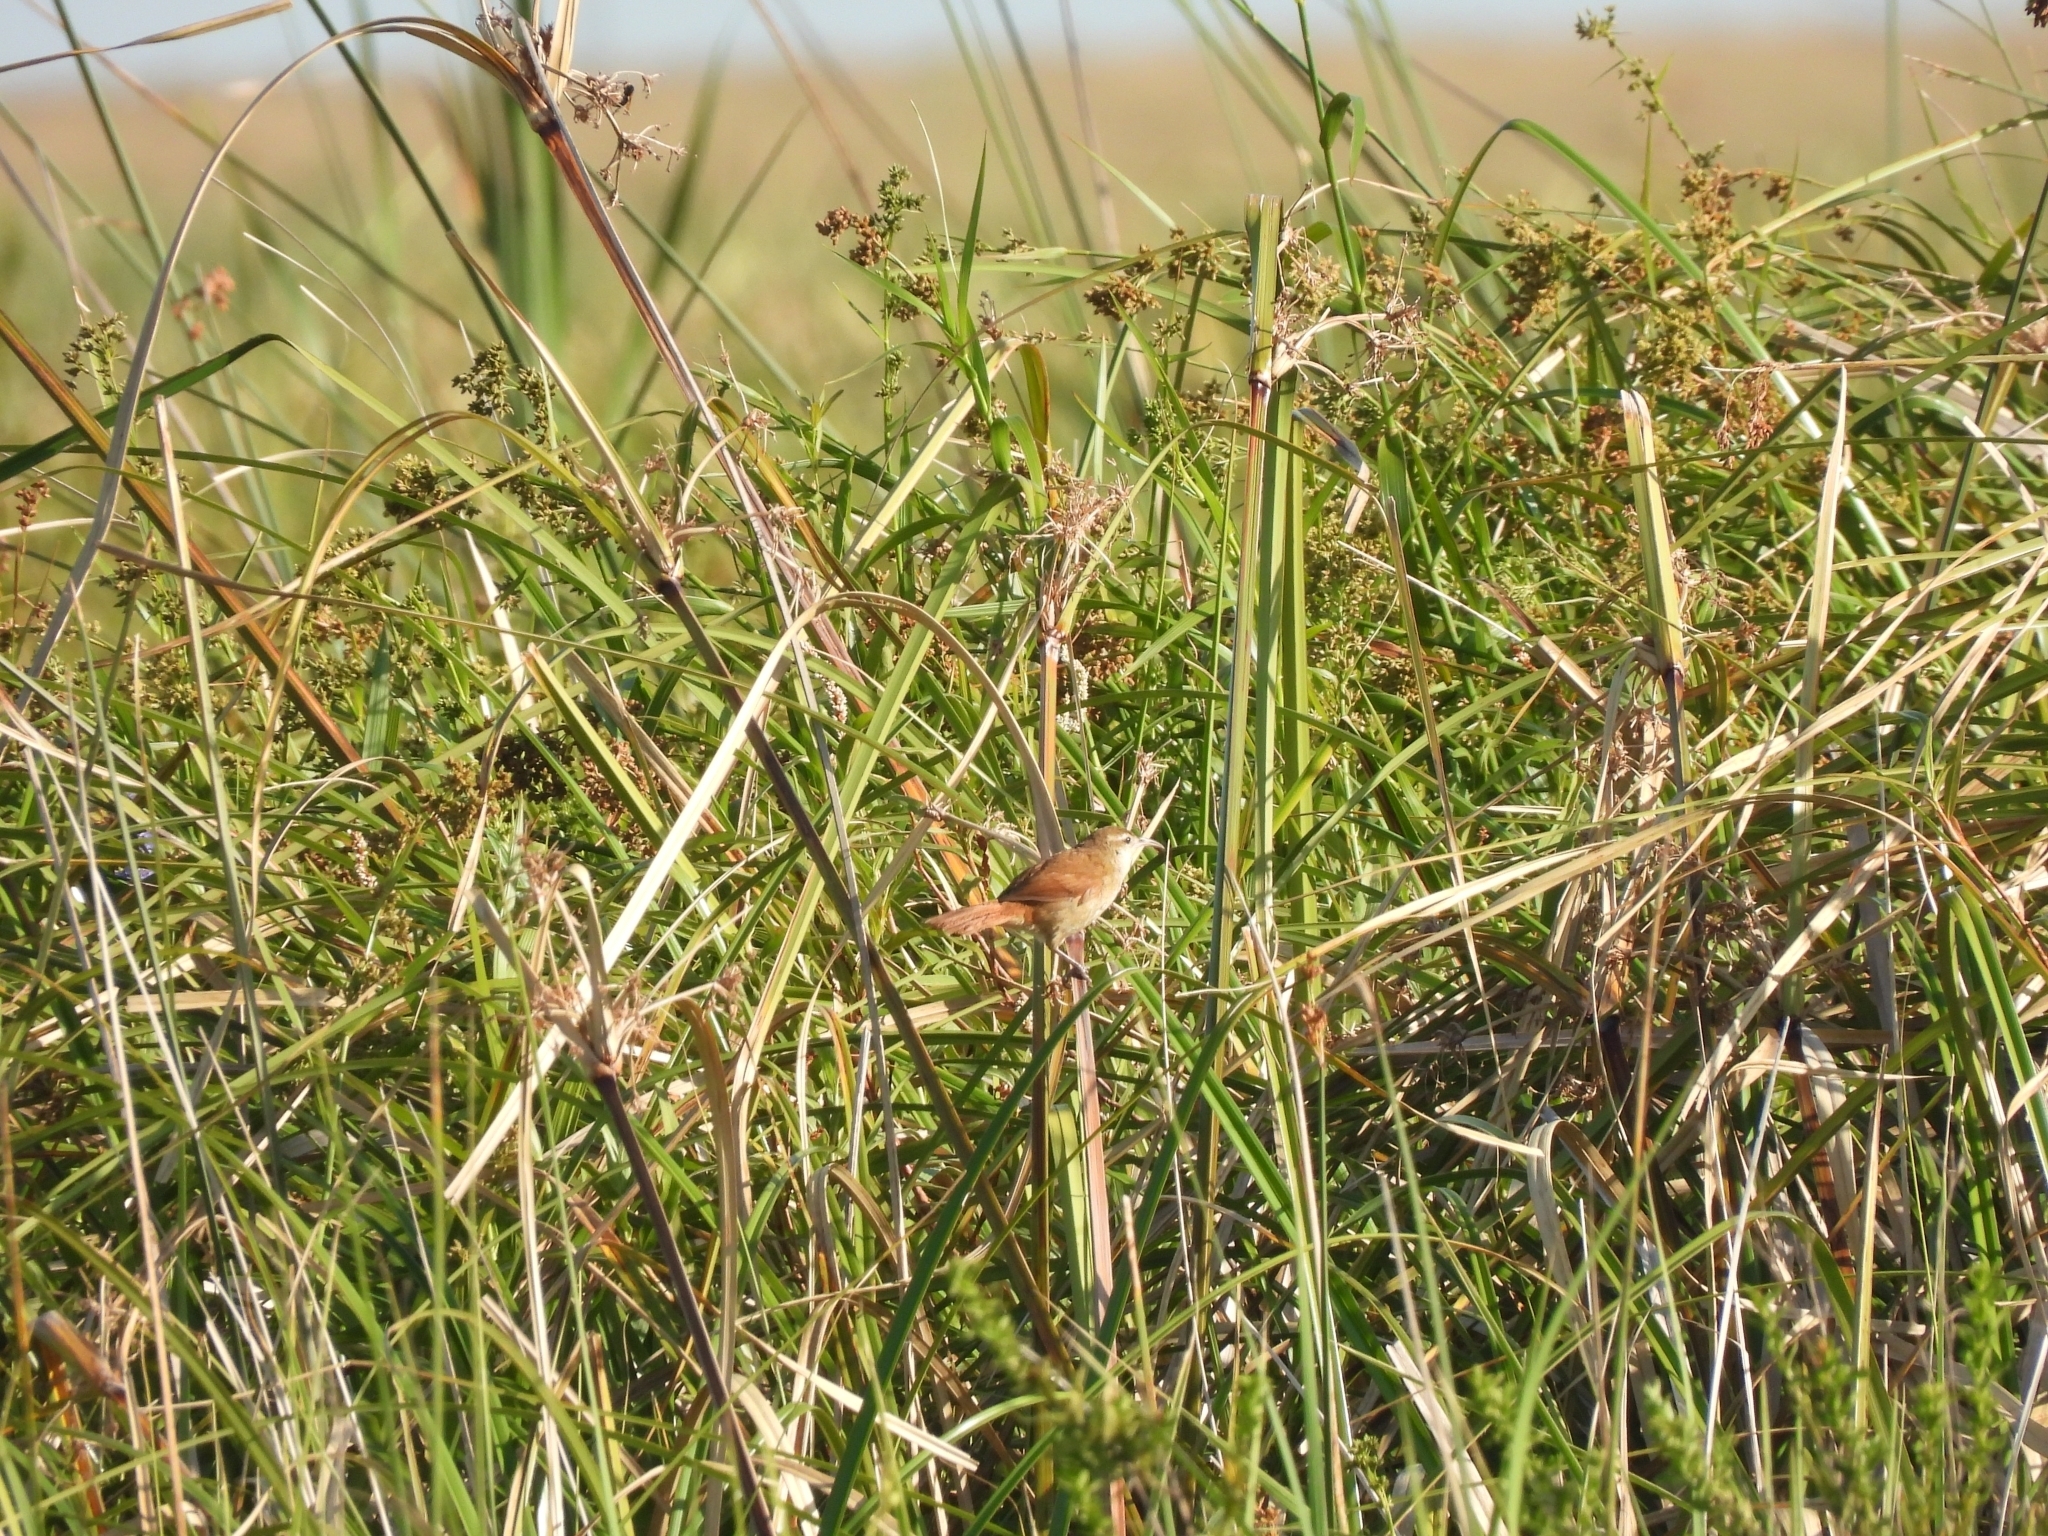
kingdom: Animalia
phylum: Chordata
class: Aves
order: Passeriformes
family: Furnariidae
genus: Limnornis
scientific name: Limnornis curvirostris
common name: Curve-billed reedhaunter
